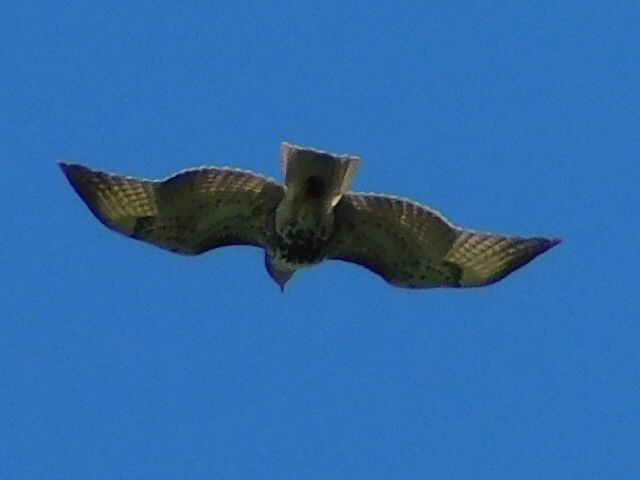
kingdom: Animalia
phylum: Chordata
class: Aves
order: Accipitriformes
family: Accipitridae
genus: Buteo
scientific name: Buteo jamaicensis
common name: Red-tailed hawk
